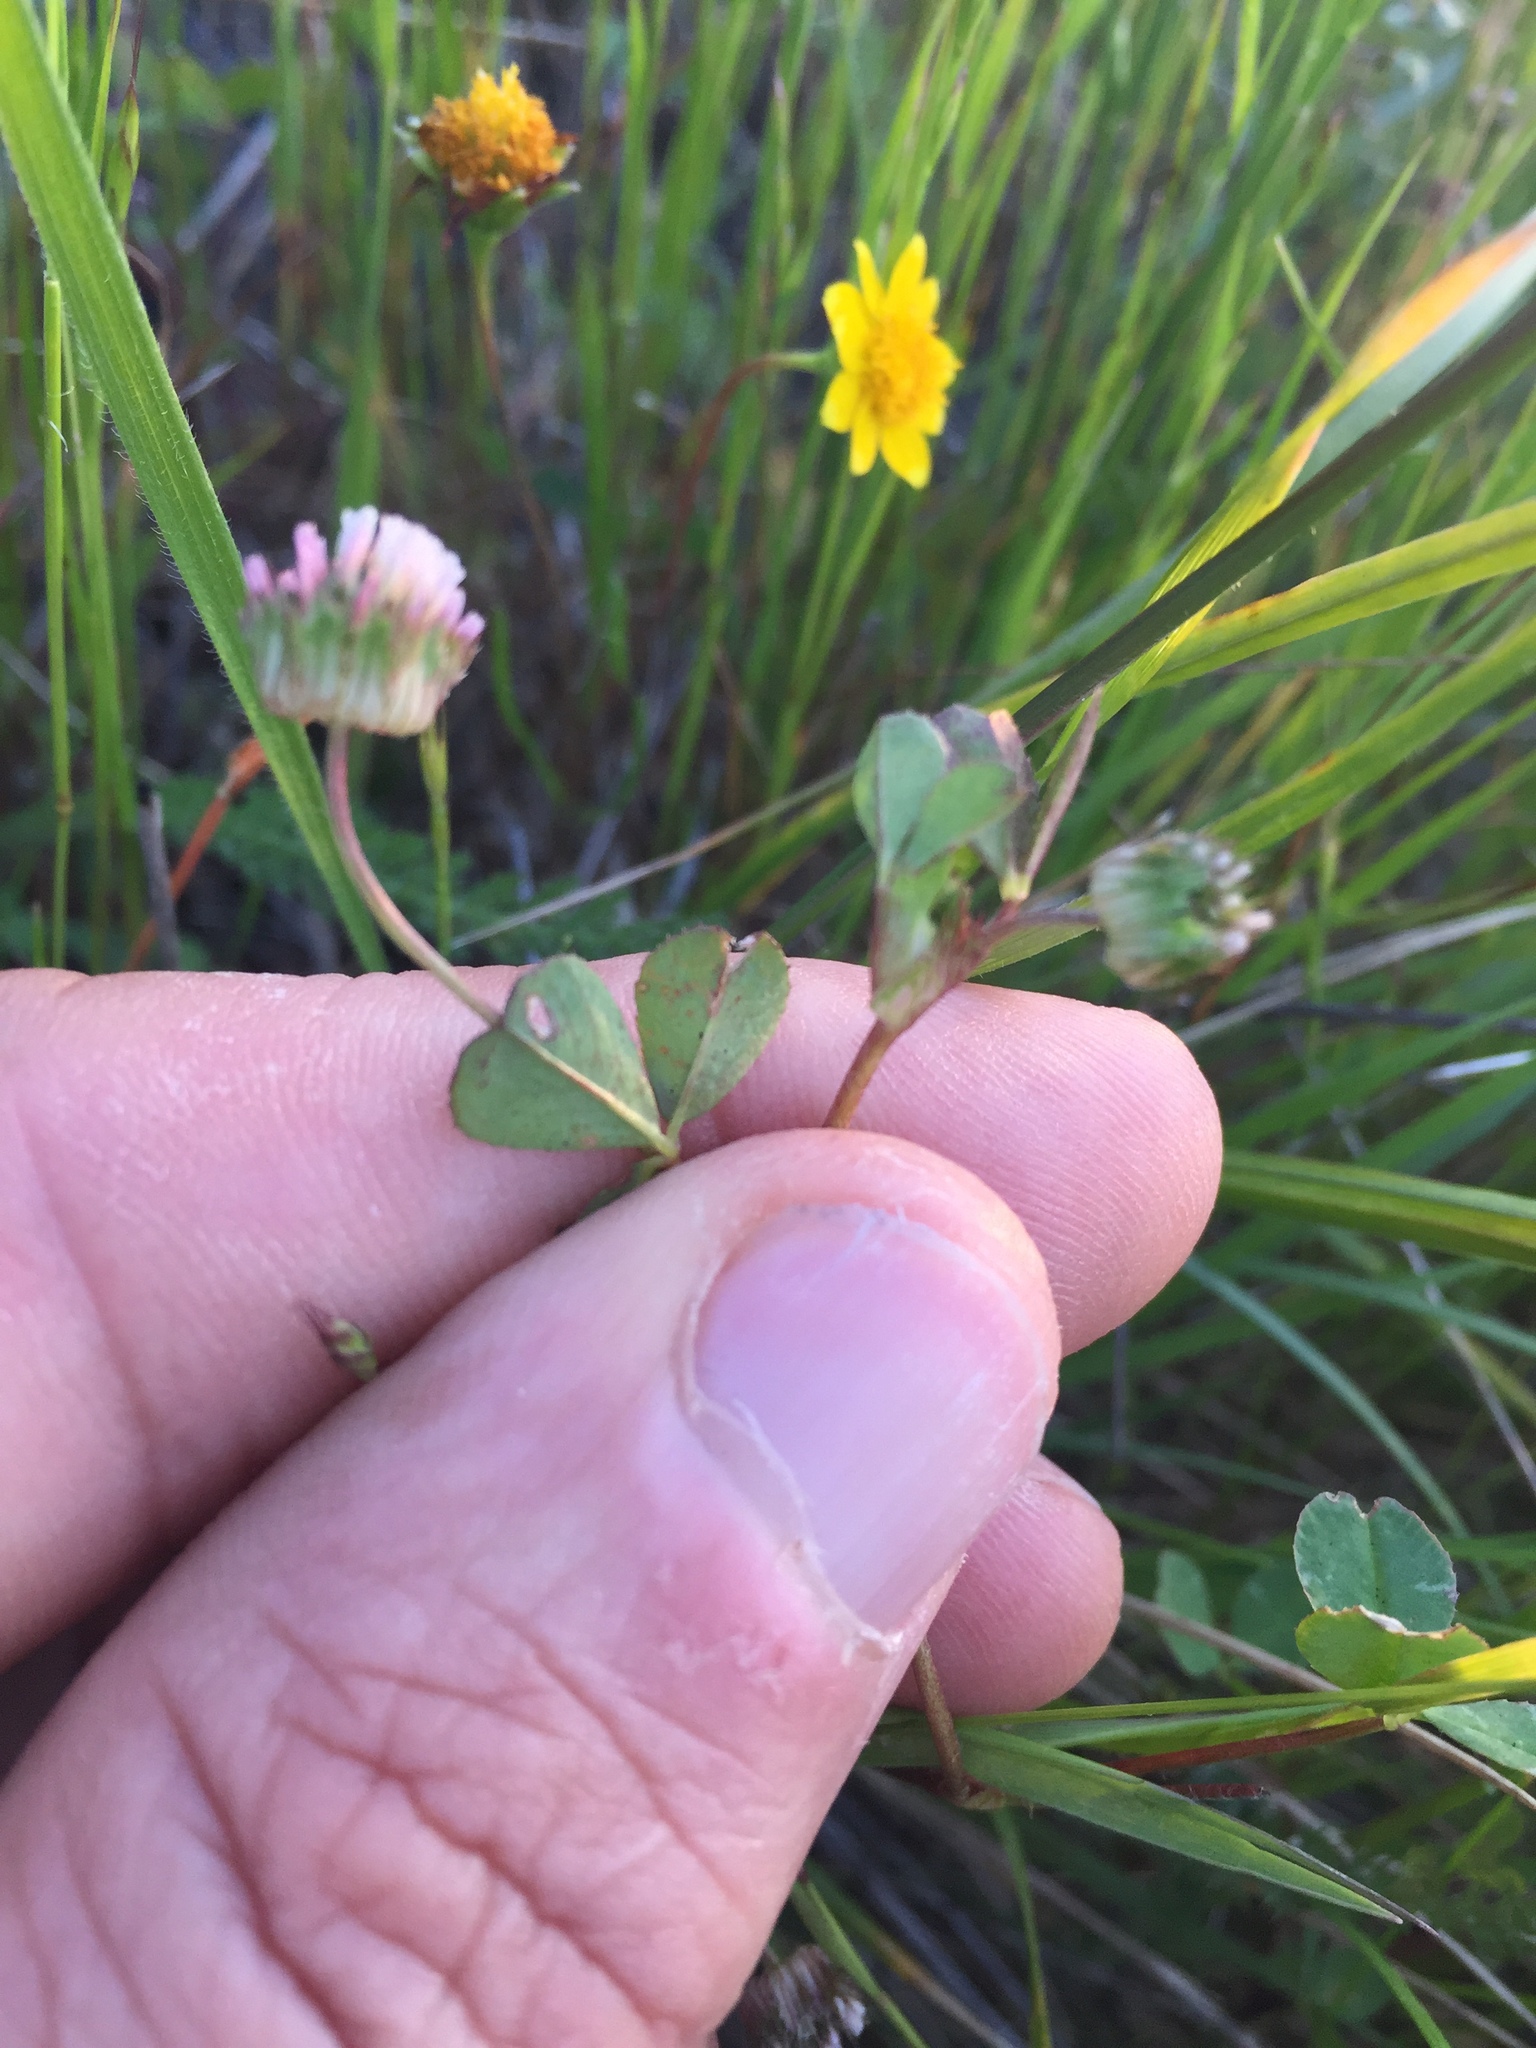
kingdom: Plantae
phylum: Tracheophyta
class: Magnoliopsida
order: Fabales
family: Fabaceae
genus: Trifolium
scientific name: Trifolium microdon
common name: Thimble clover
